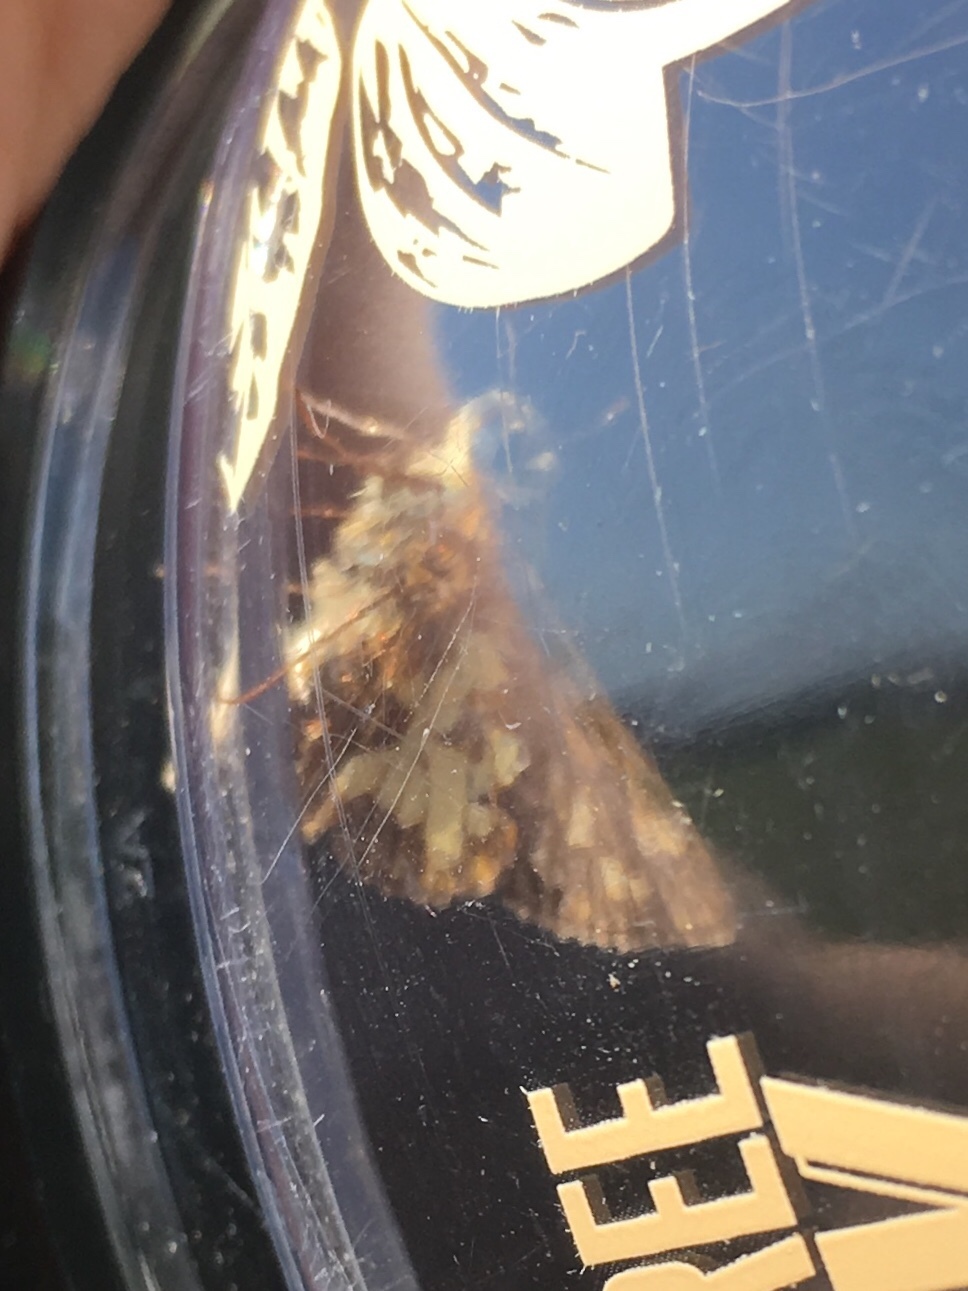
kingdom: Animalia
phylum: Arthropoda
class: Insecta
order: Lepidoptera
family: Hesperiidae
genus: Polites
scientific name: Polites coras
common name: Peck's skipper
